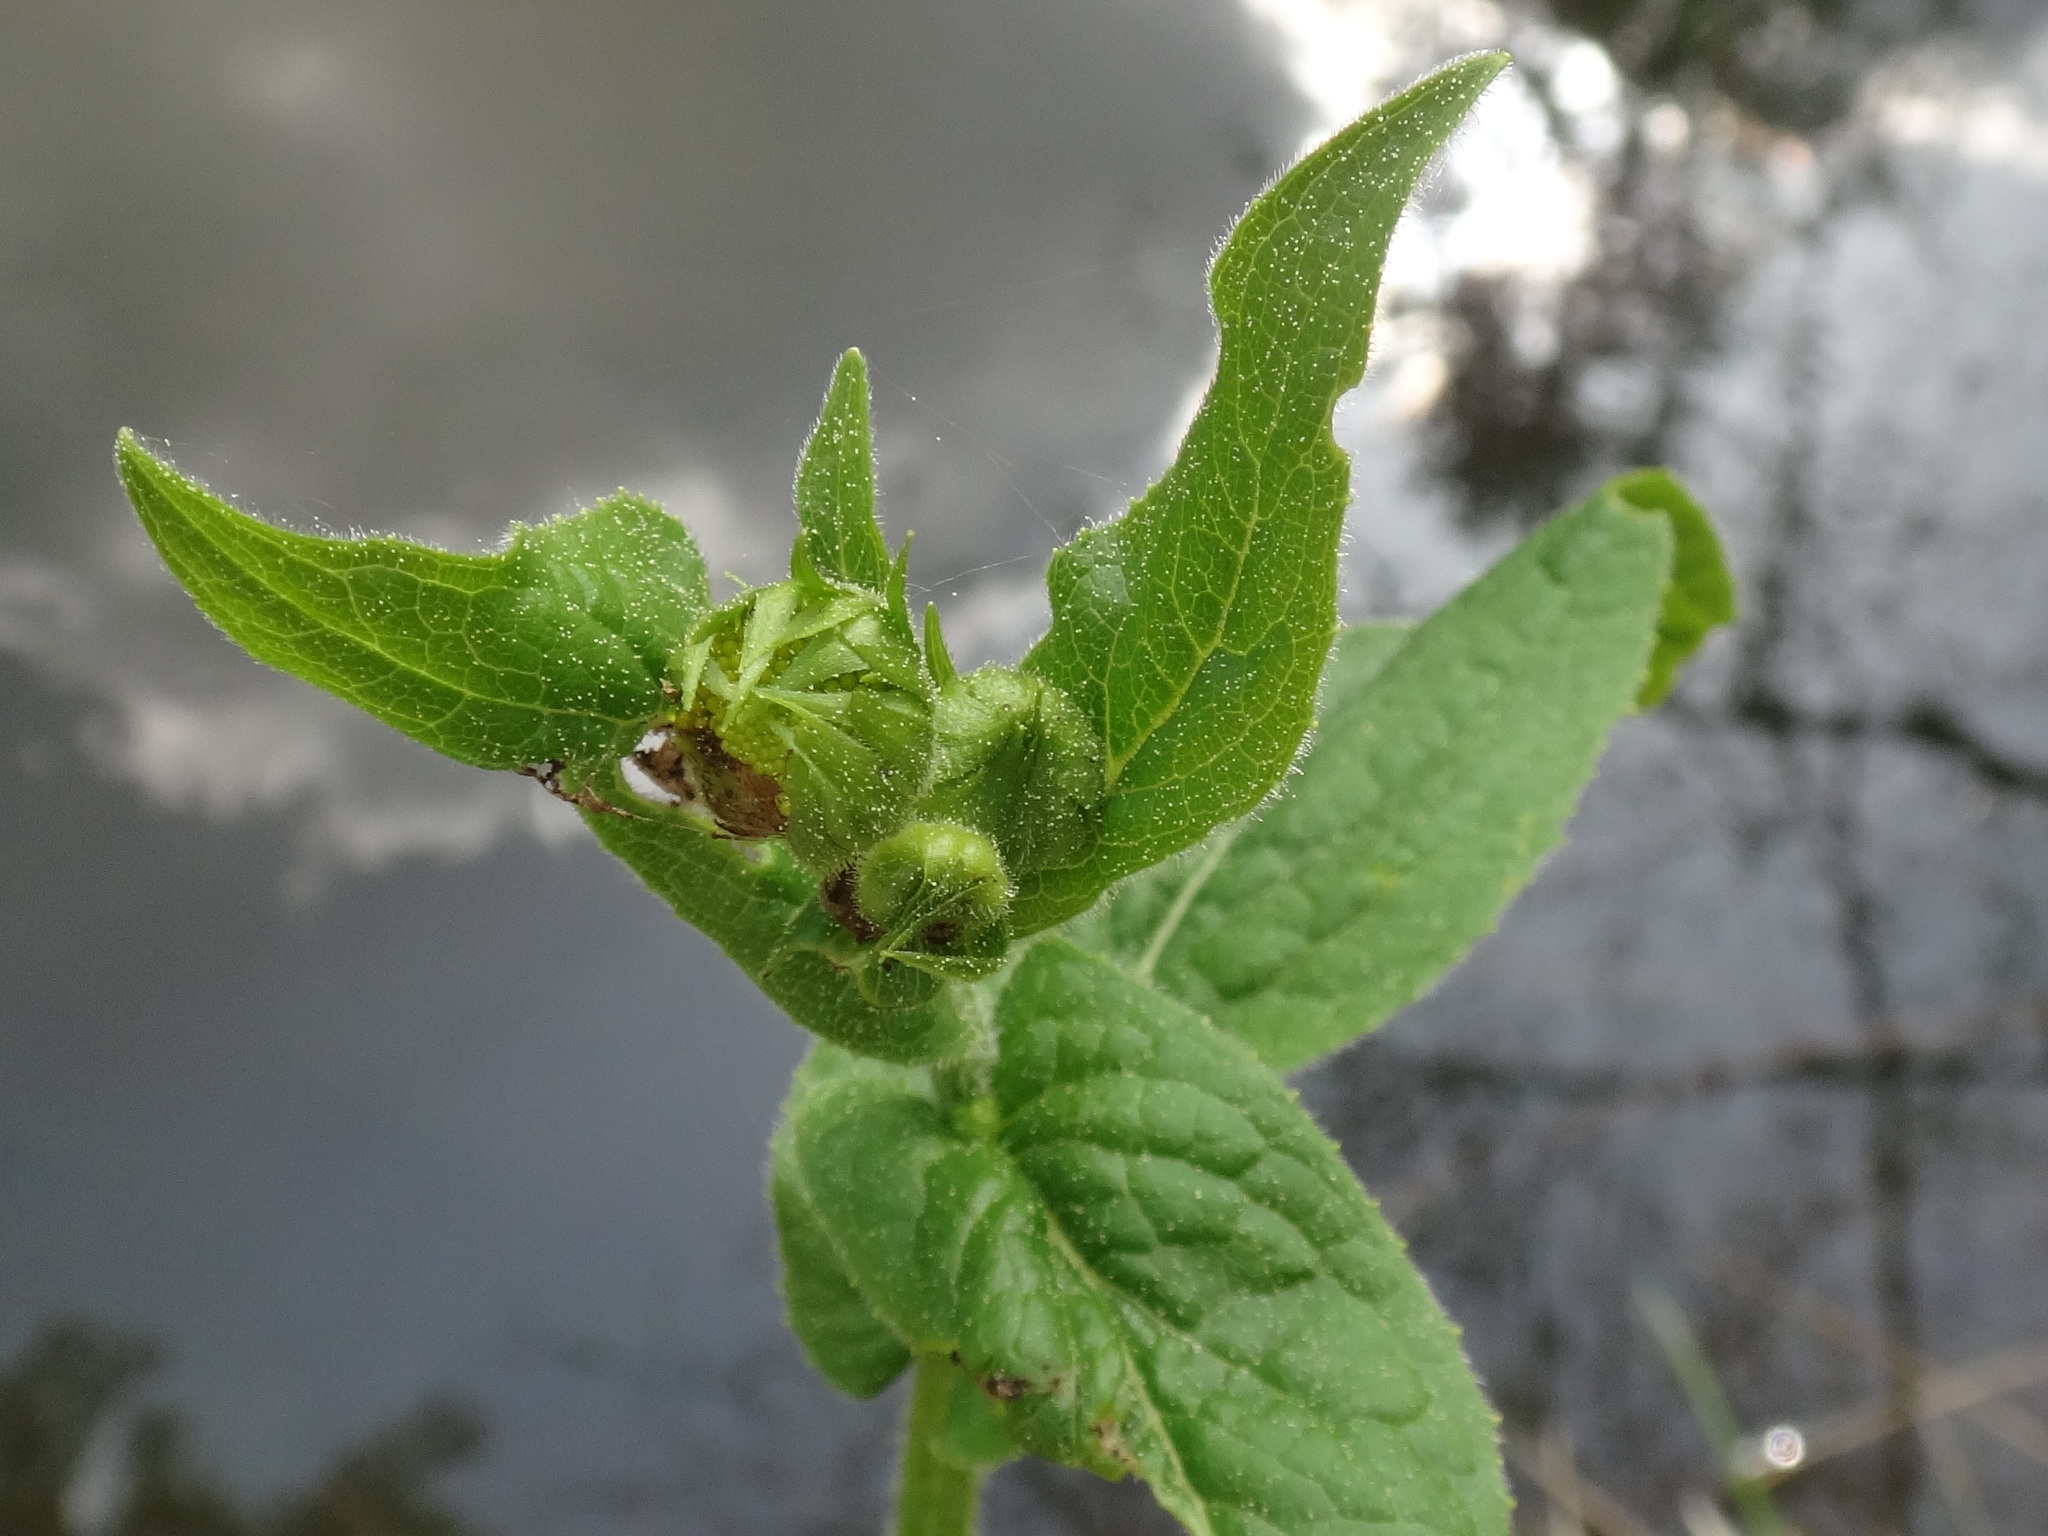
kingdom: Plantae
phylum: Tracheophyta
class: Magnoliopsida
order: Asterales
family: Asteraceae
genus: Doronicum
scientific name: Doronicum austriacum
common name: Austrian leopard's-bane
